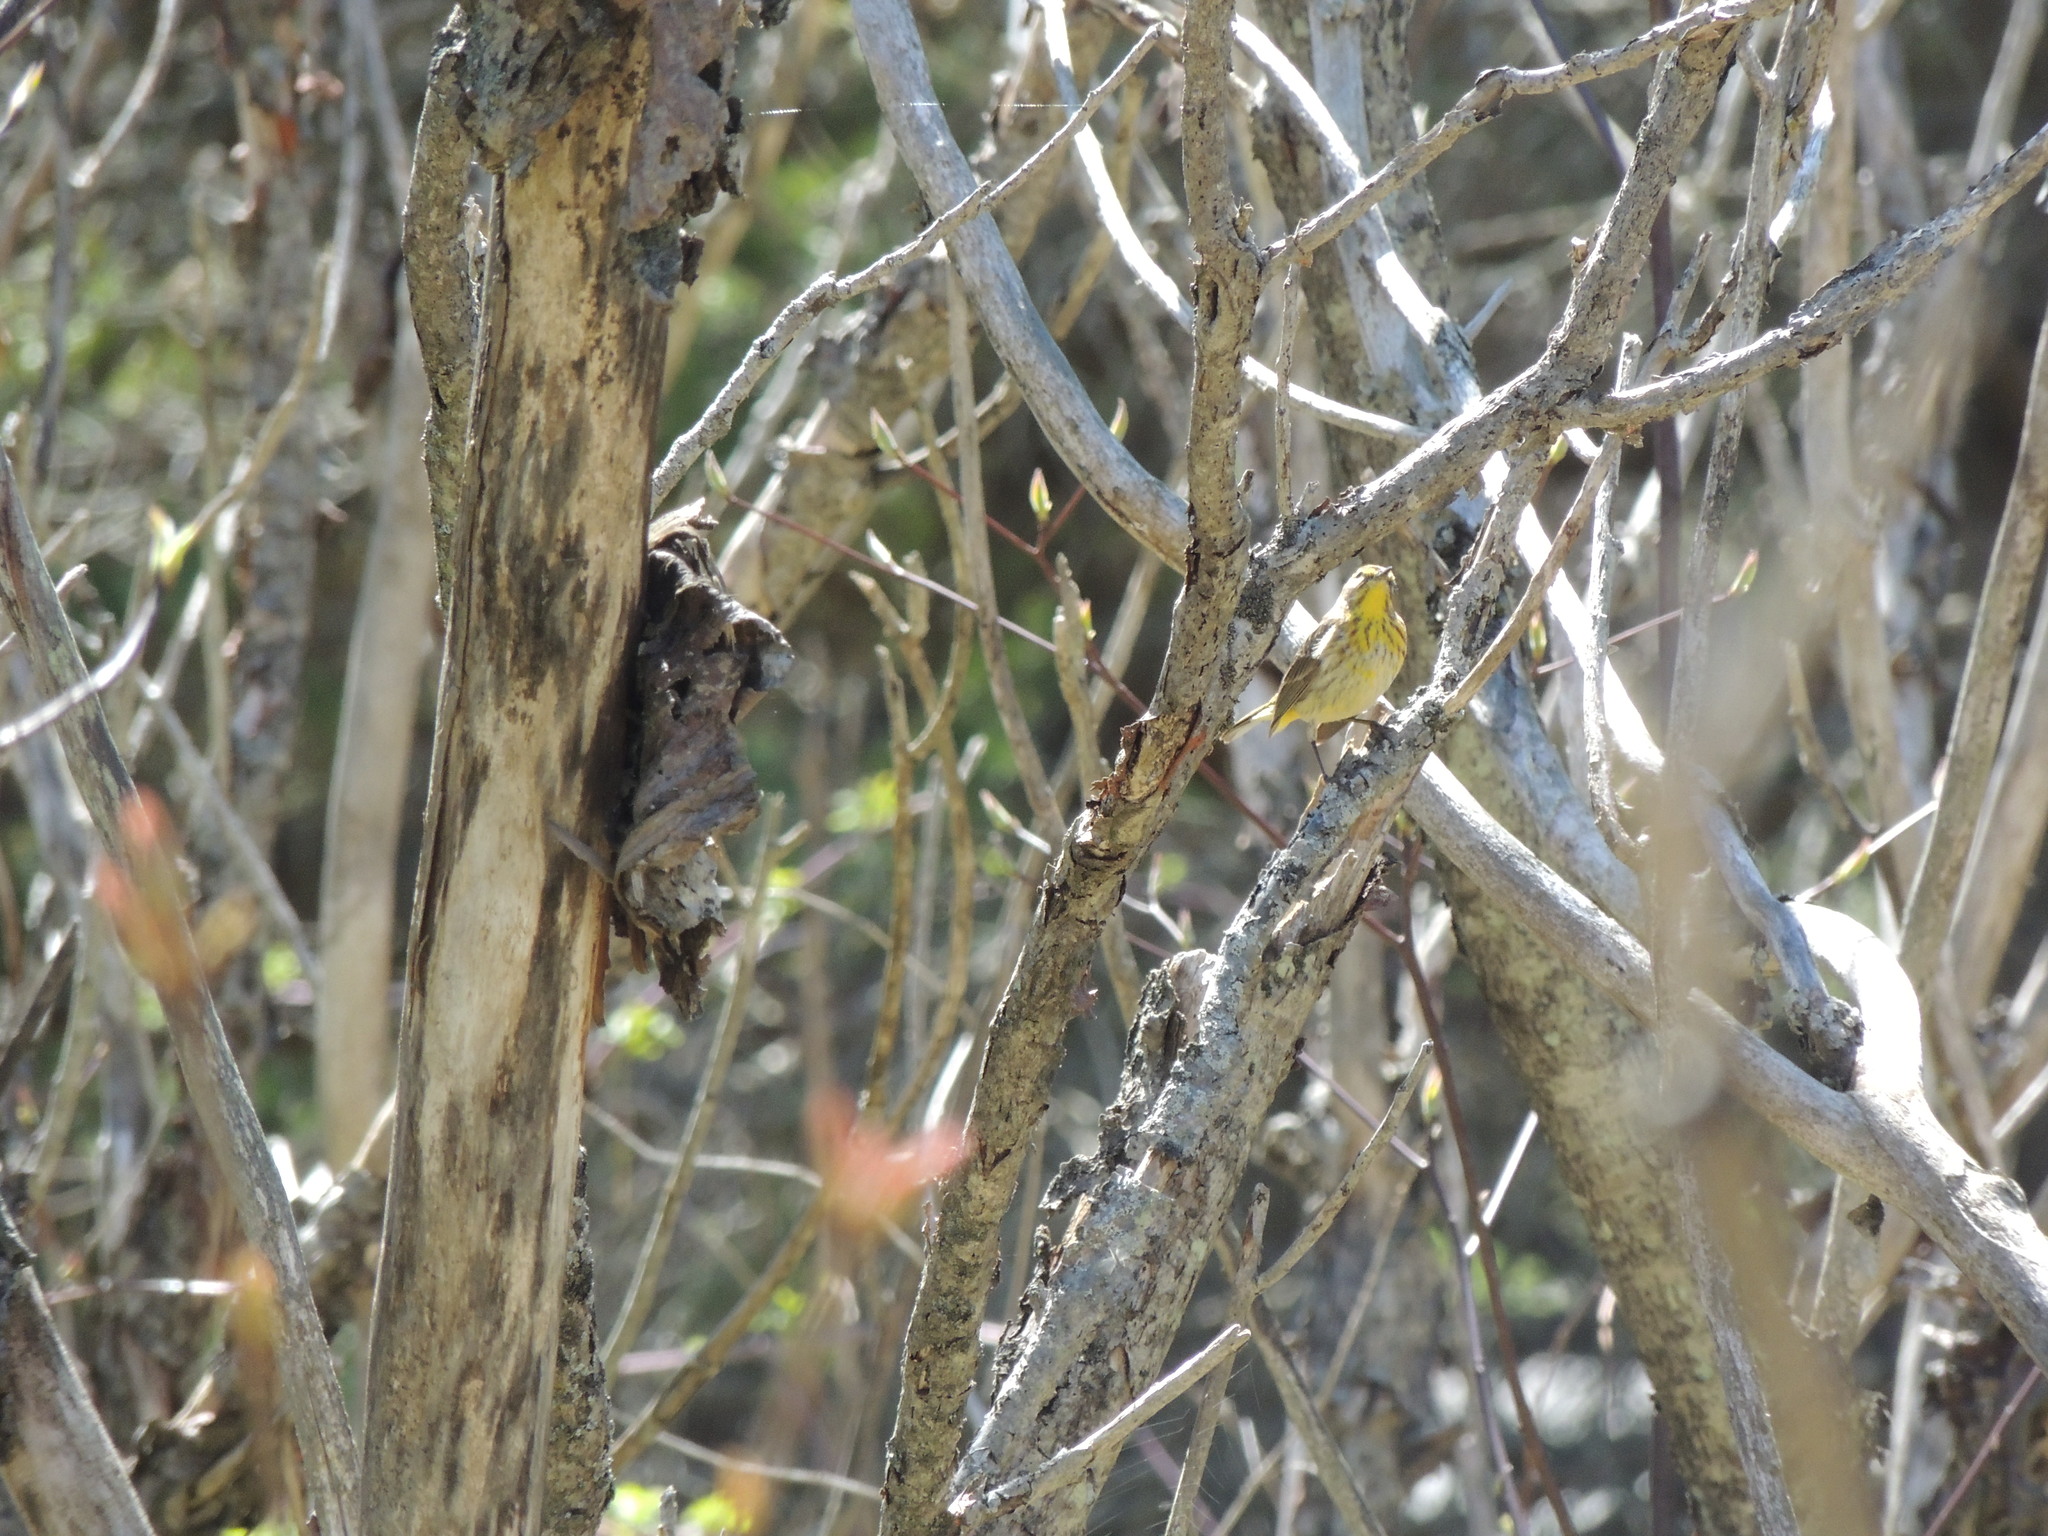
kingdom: Animalia
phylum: Chordata
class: Aves
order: Passeriformes
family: Parulidae
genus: Setophaga
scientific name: Setophaga palmarum
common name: Palm warbler
